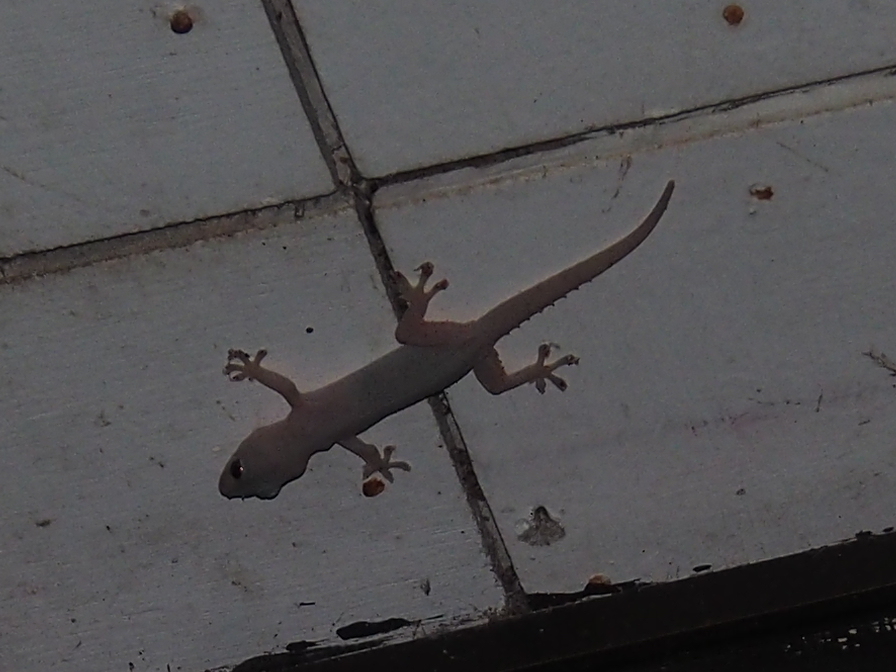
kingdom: Animalia
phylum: Chordata
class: Squamata
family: Gekkonidae
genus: Hemidactylus
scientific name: Hemidactylus frenatus
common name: Common house gecko
